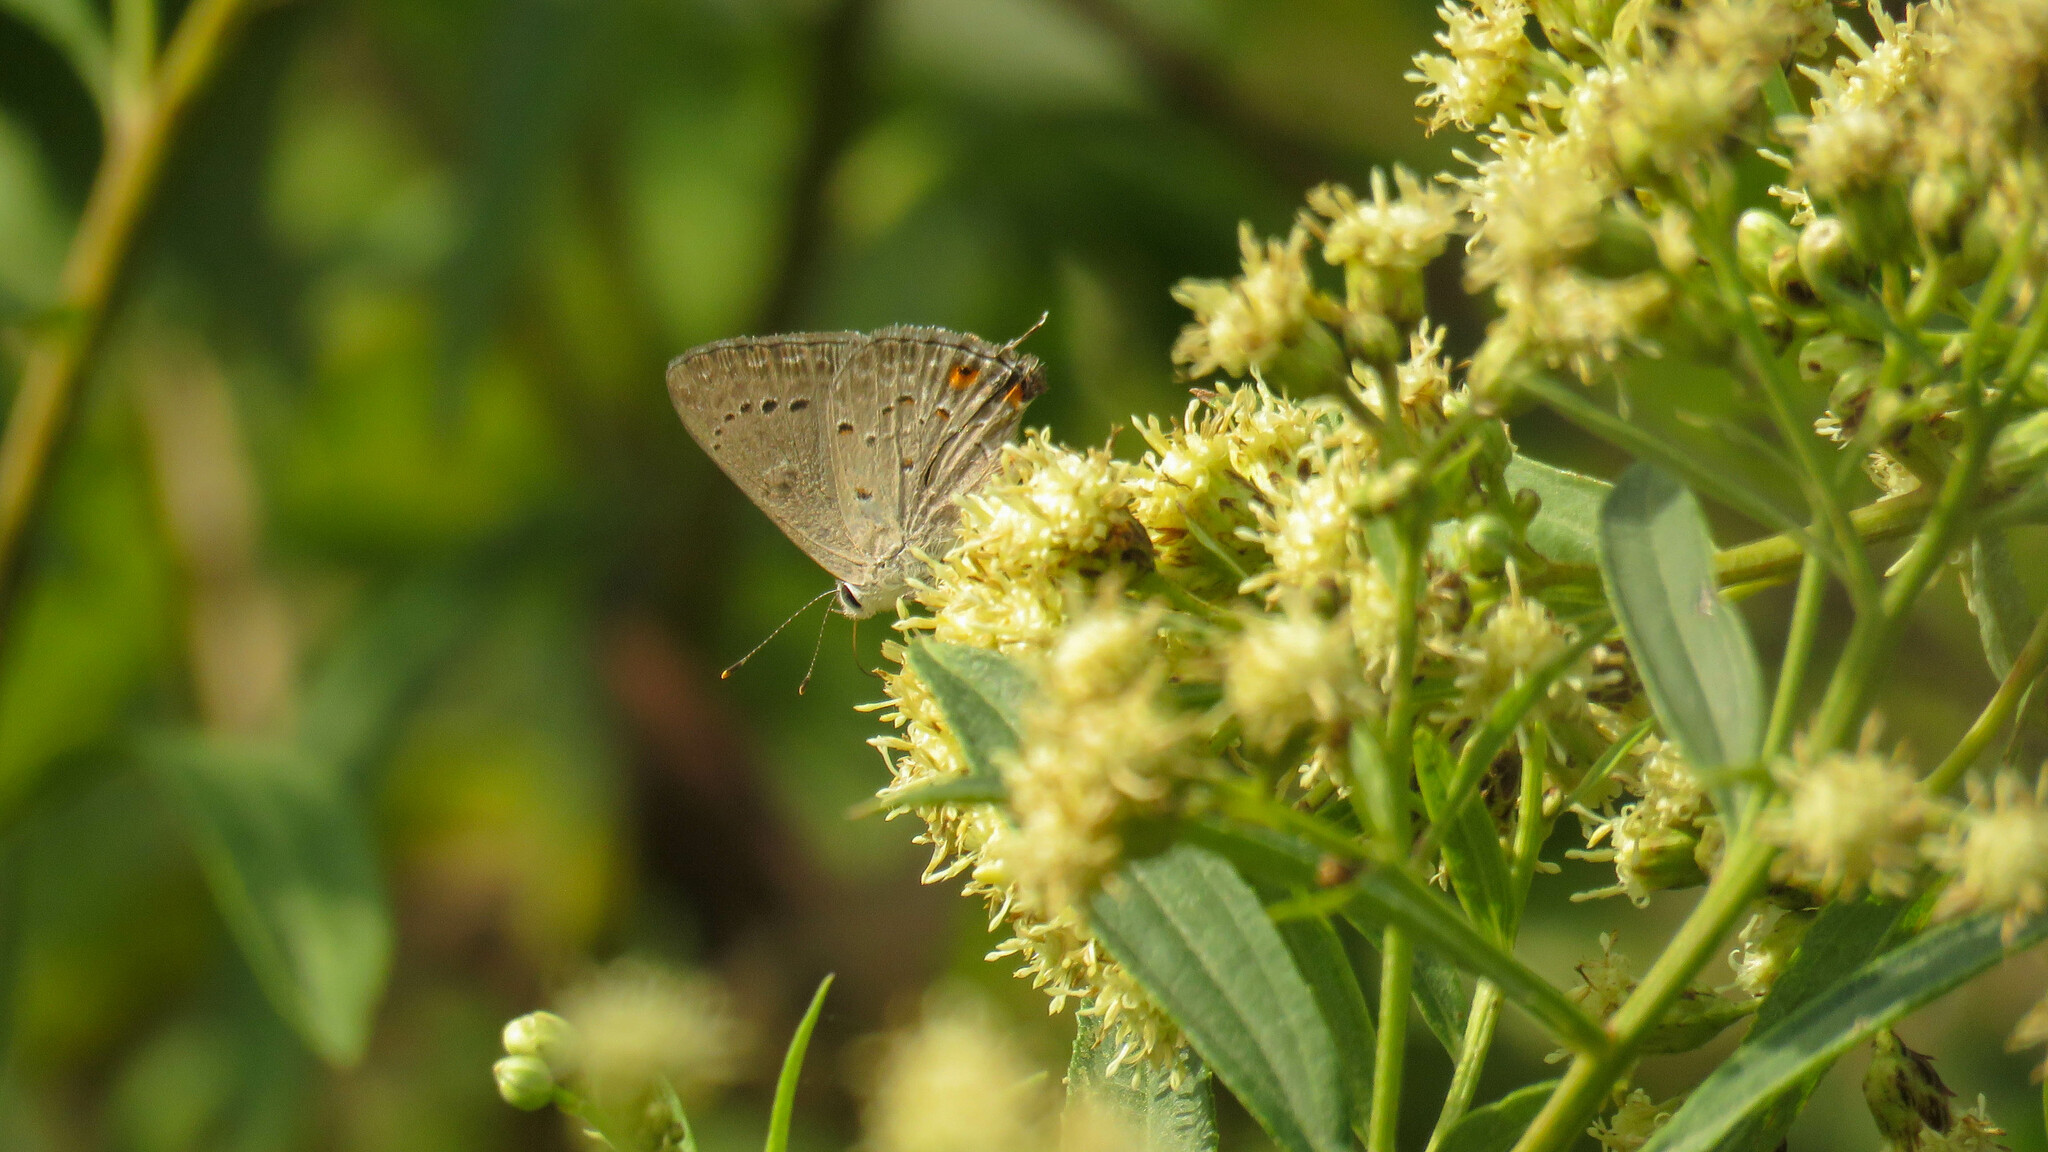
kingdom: Animalia
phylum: Arthropoda
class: Insecta
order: Lepidoptera
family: Lycaenidae
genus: Strymon
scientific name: Strymon eurytulus
